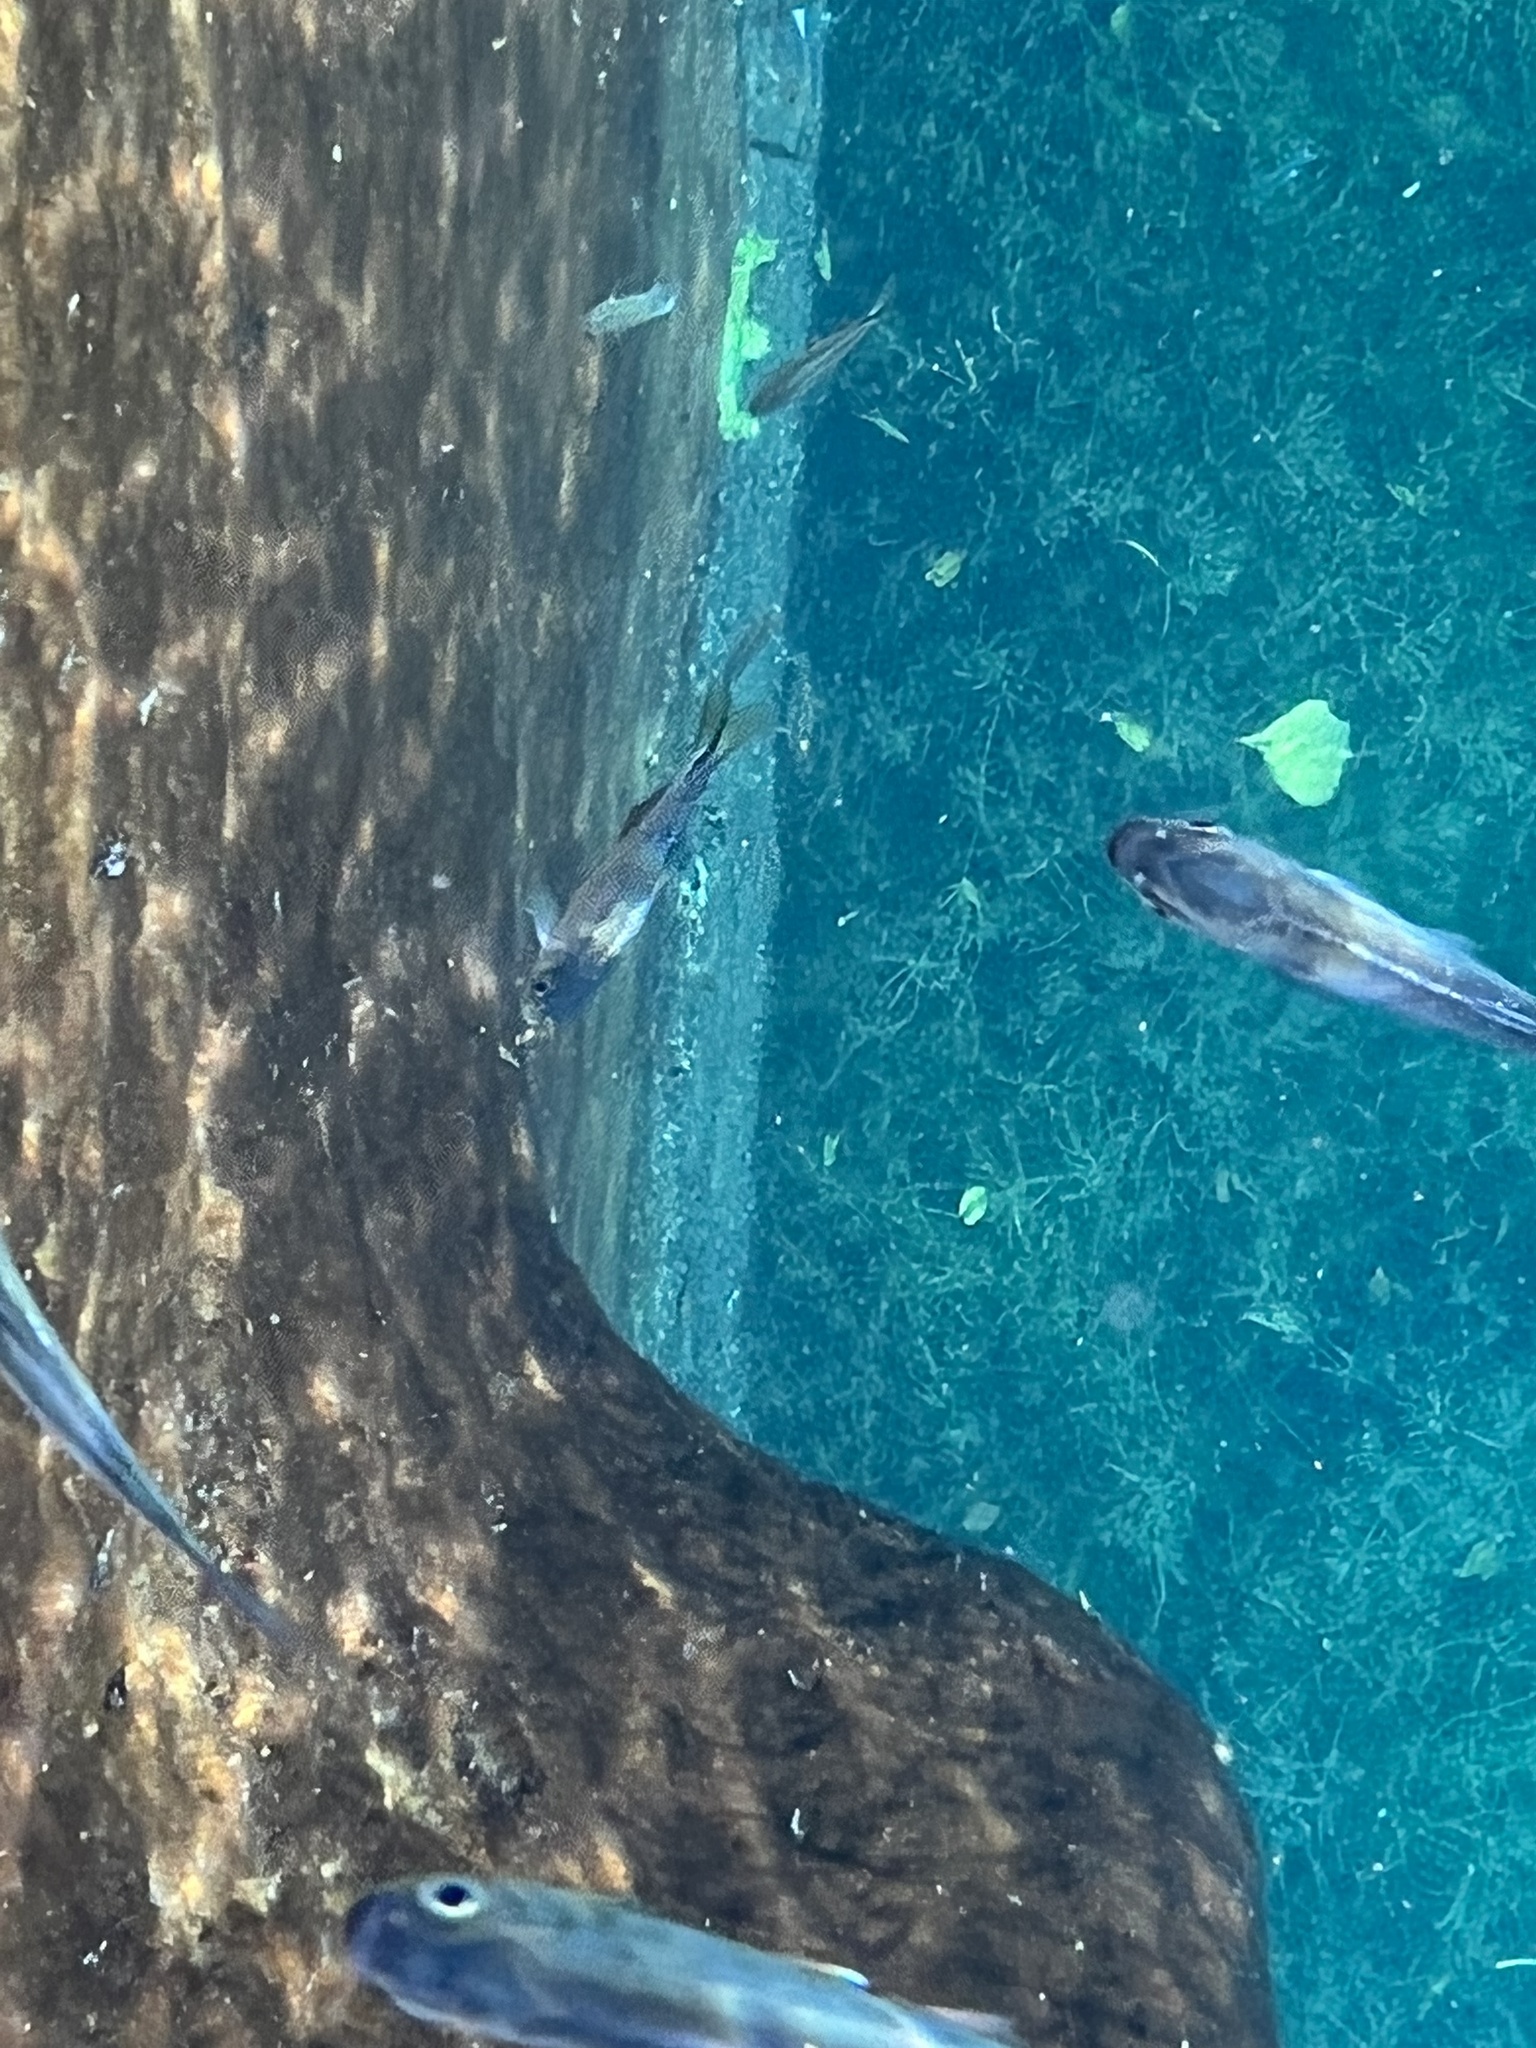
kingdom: Animalia
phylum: Chordata
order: Characiformes
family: Characidae
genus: Astyanax
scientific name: Astyanax mexicanus
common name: Mexican tetra
